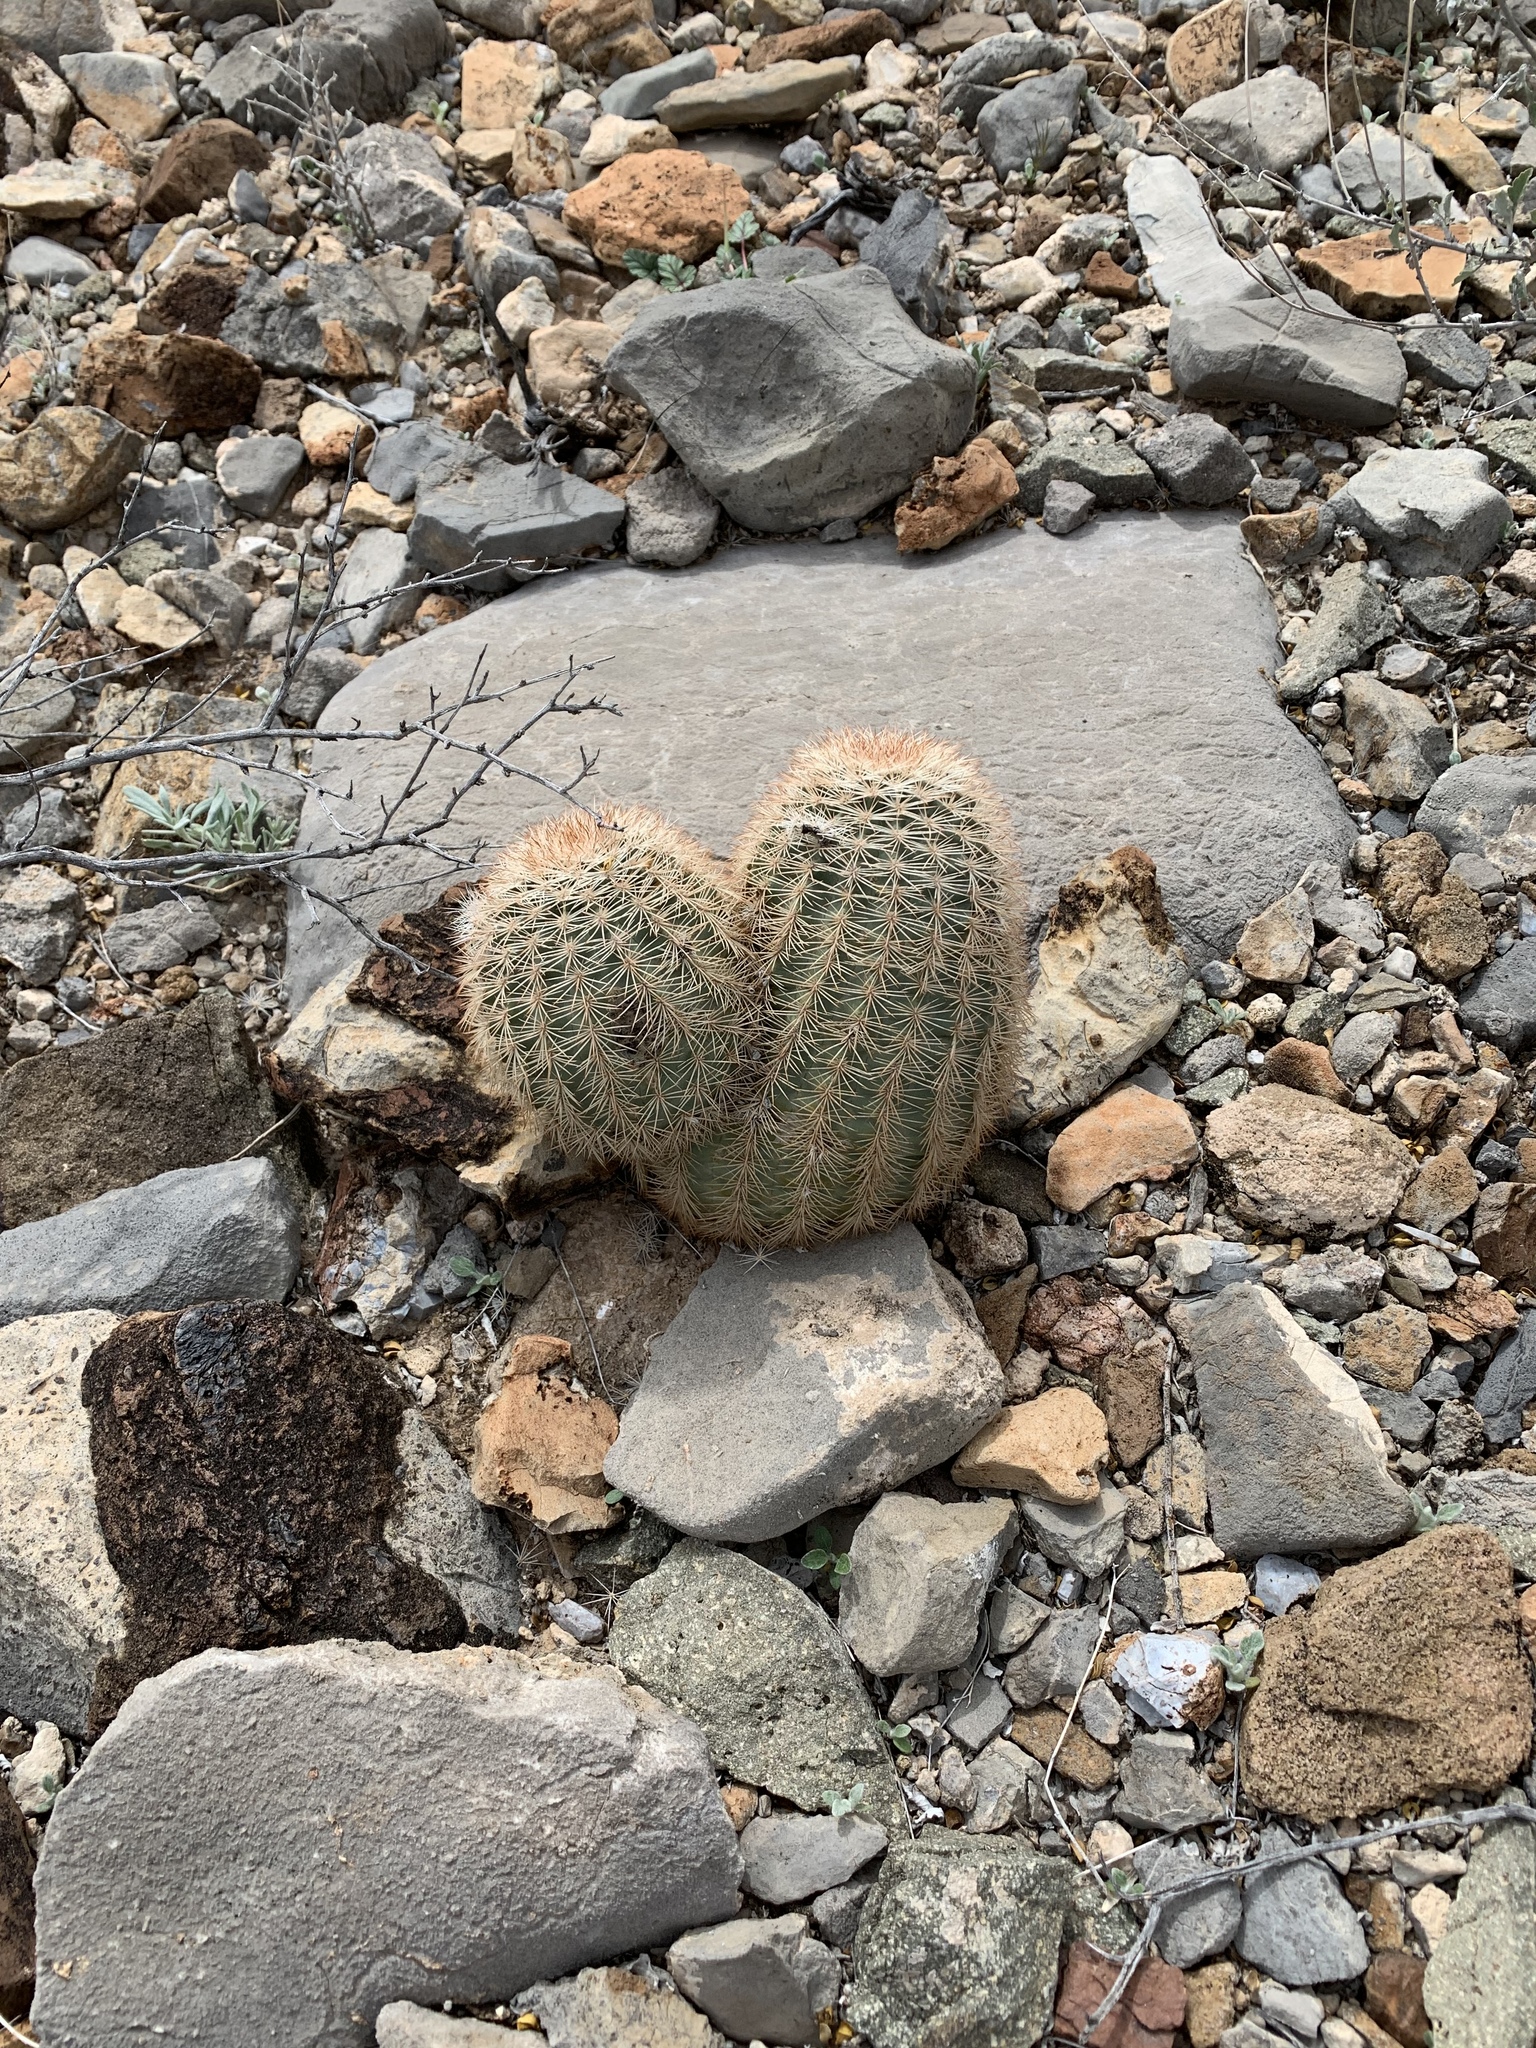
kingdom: Plantae
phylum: Tracheophyta
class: Magnoliopsida
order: Caryophyllales
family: Cactaceae
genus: Echinocereus
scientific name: Echinocereus dasyacanthus
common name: Spiny hedgehog cactus
